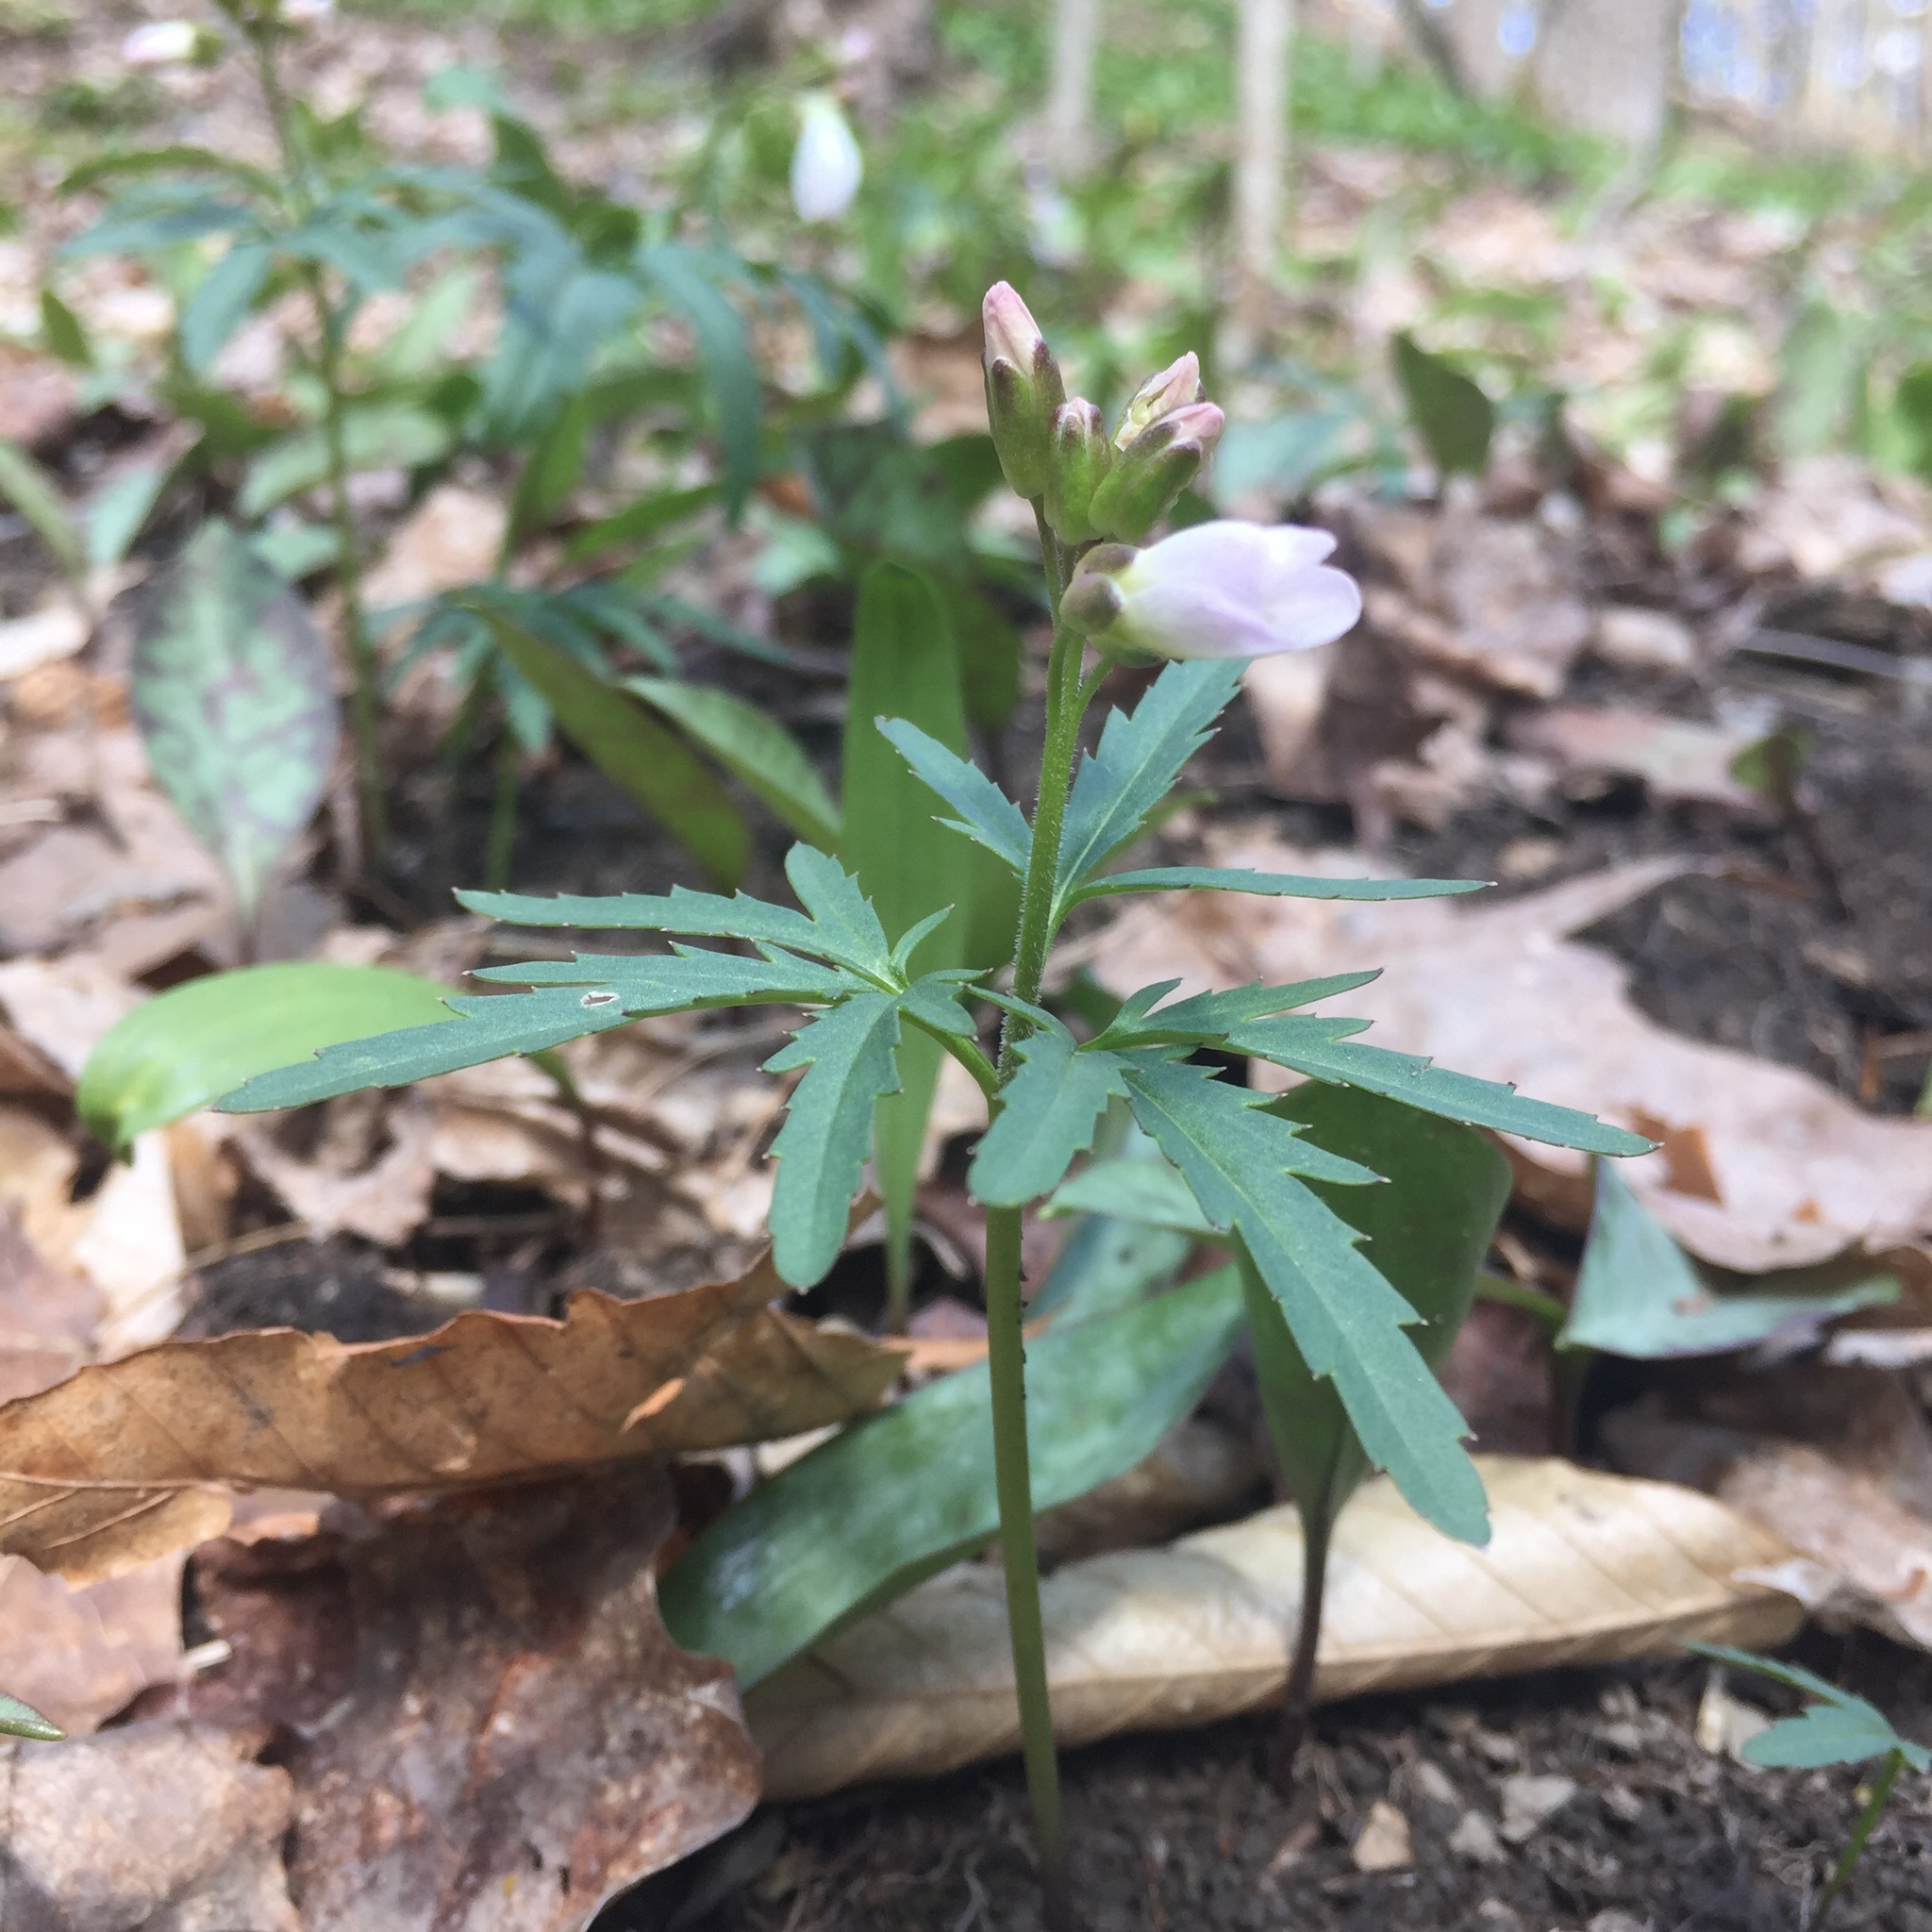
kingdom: Plantae
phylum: Tracheophyta
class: Magnoliopsida
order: Brassicales
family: Brassicaceae
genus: Cardamine
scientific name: Cardamine concatenata
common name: Cut-leaf toothcup
